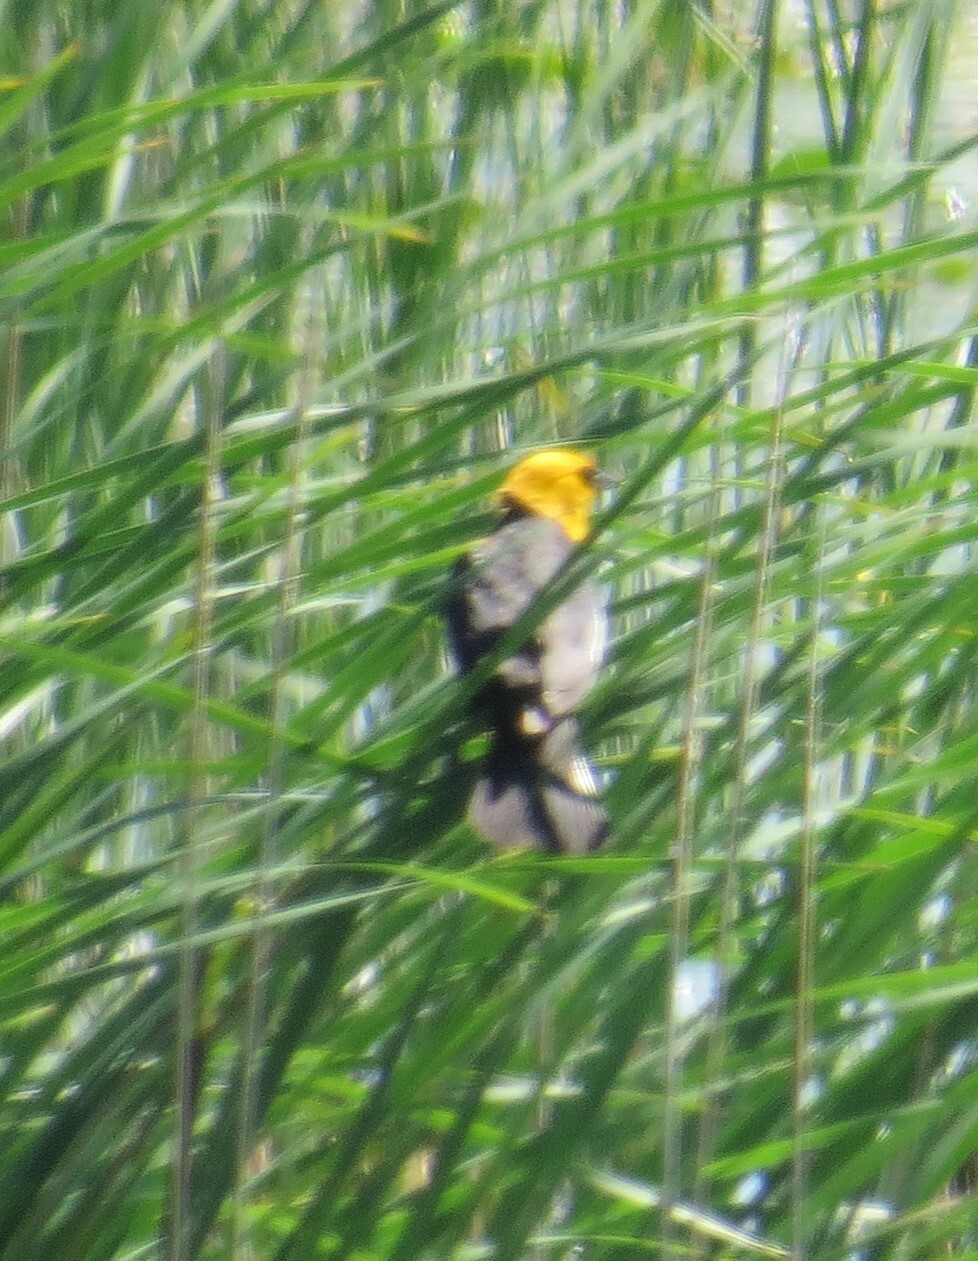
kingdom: Animalia
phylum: Chordata
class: Aves
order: Passeriformes
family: Icteridae
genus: Xanthocephalus
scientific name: Xanthocephalus xanthocephalus
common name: Yellow-headed blackbird
